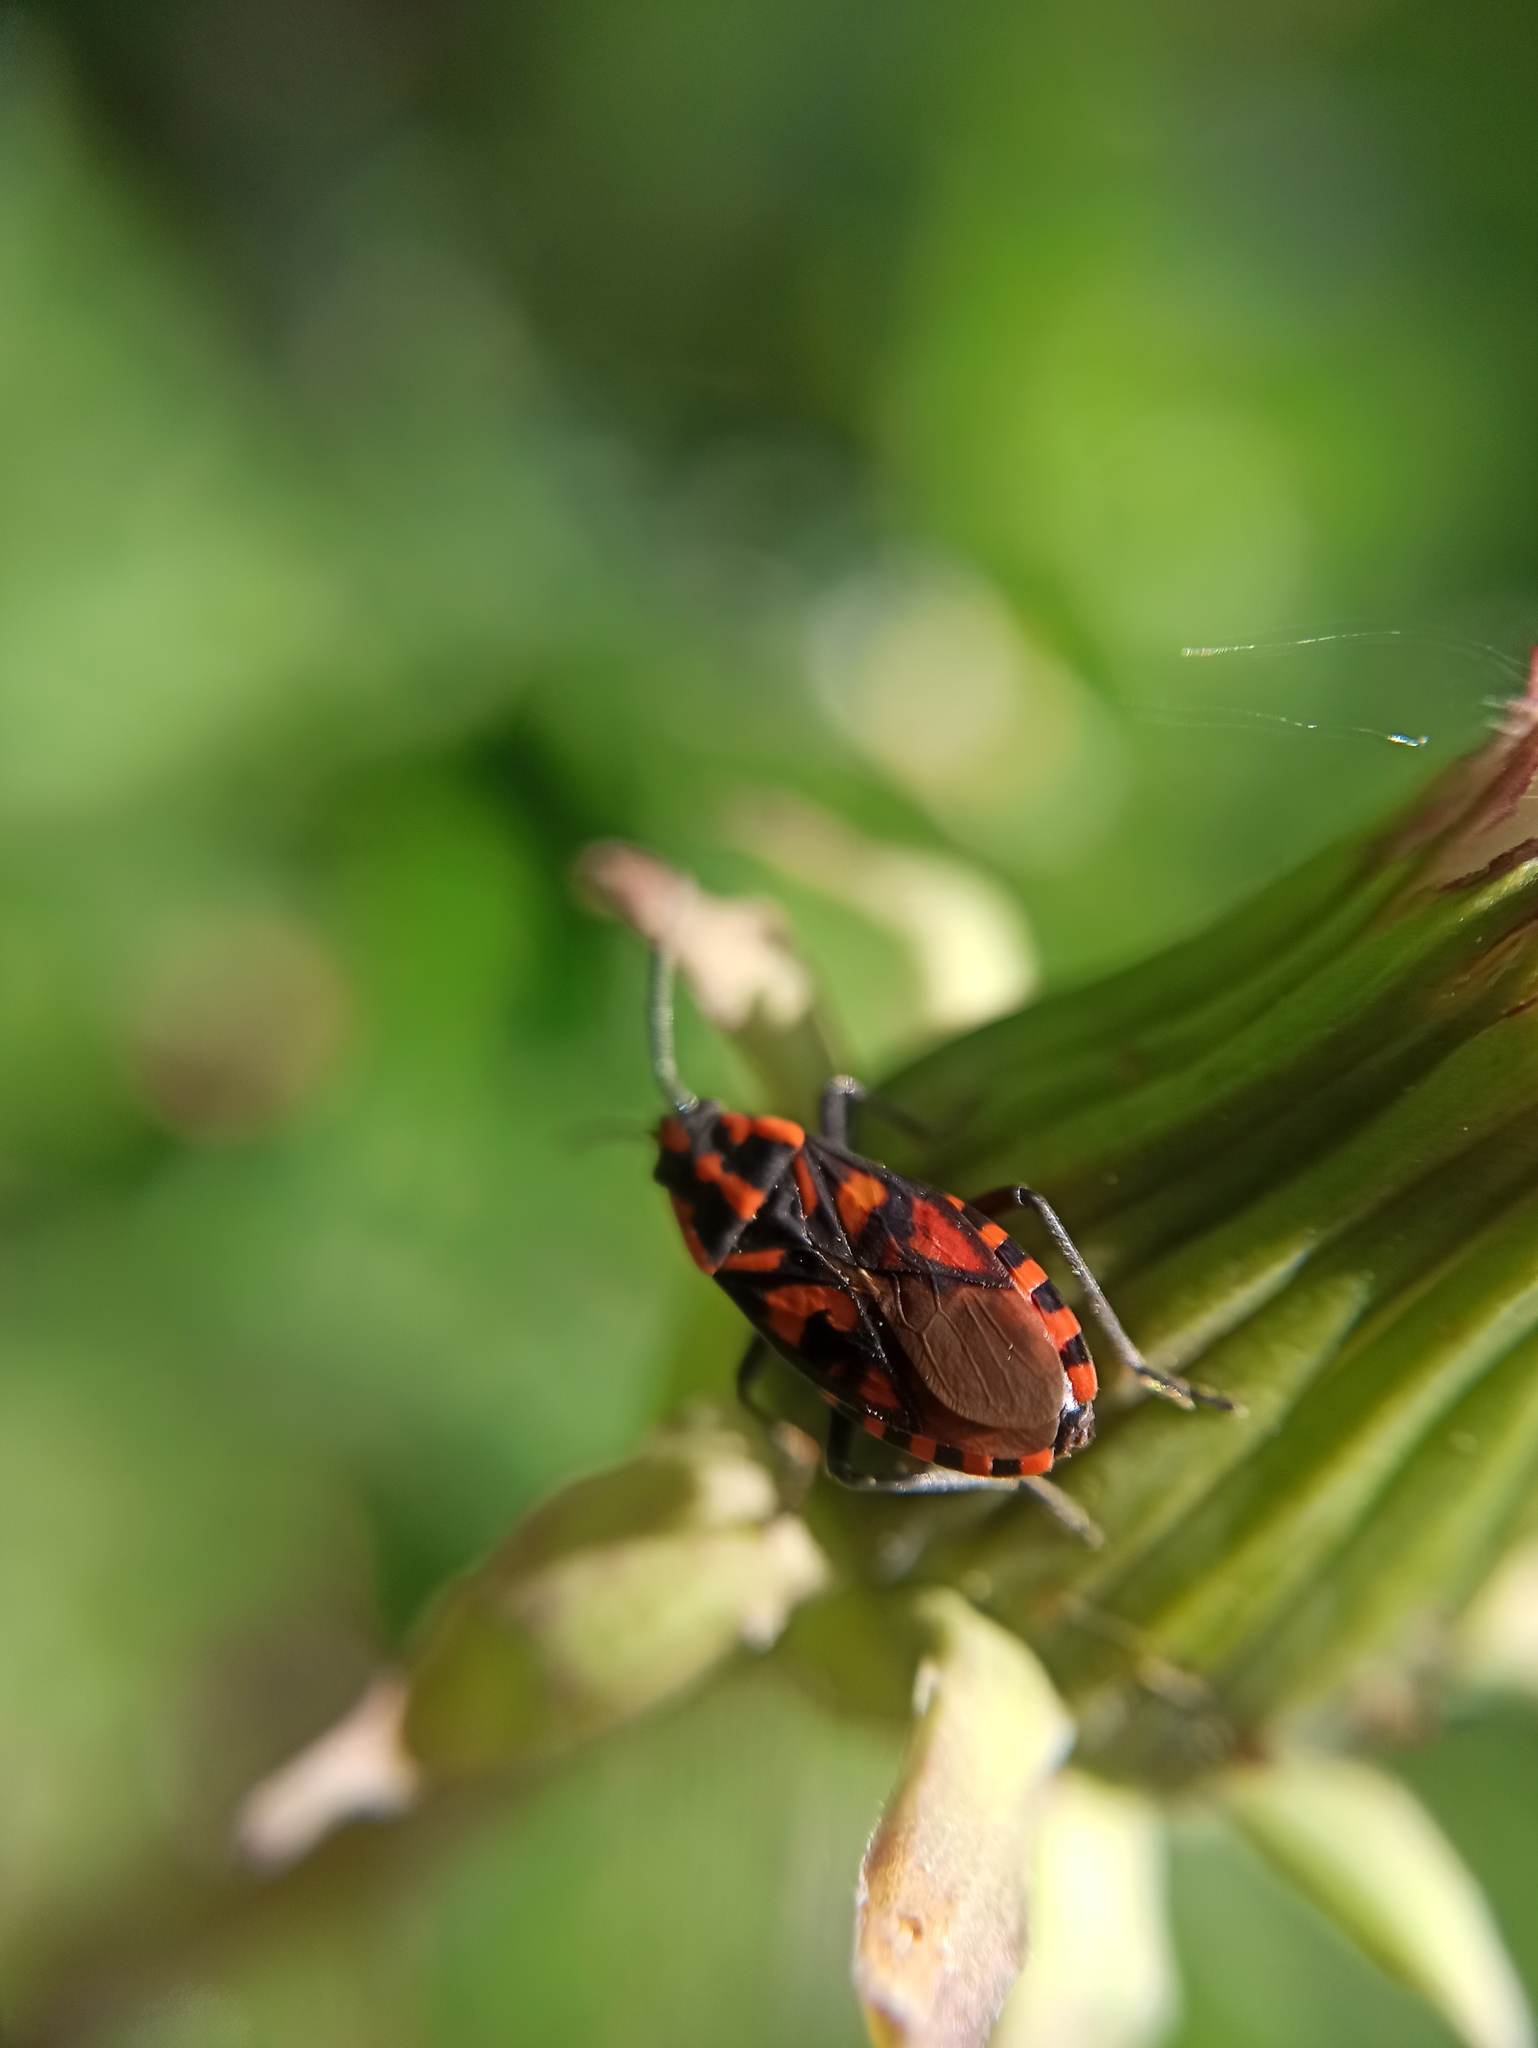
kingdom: Animalia
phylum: Arthropoda
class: Insecta
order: Hemiptera
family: Lygaeidae
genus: Spilostethus
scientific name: Spilostethus saxatilis
